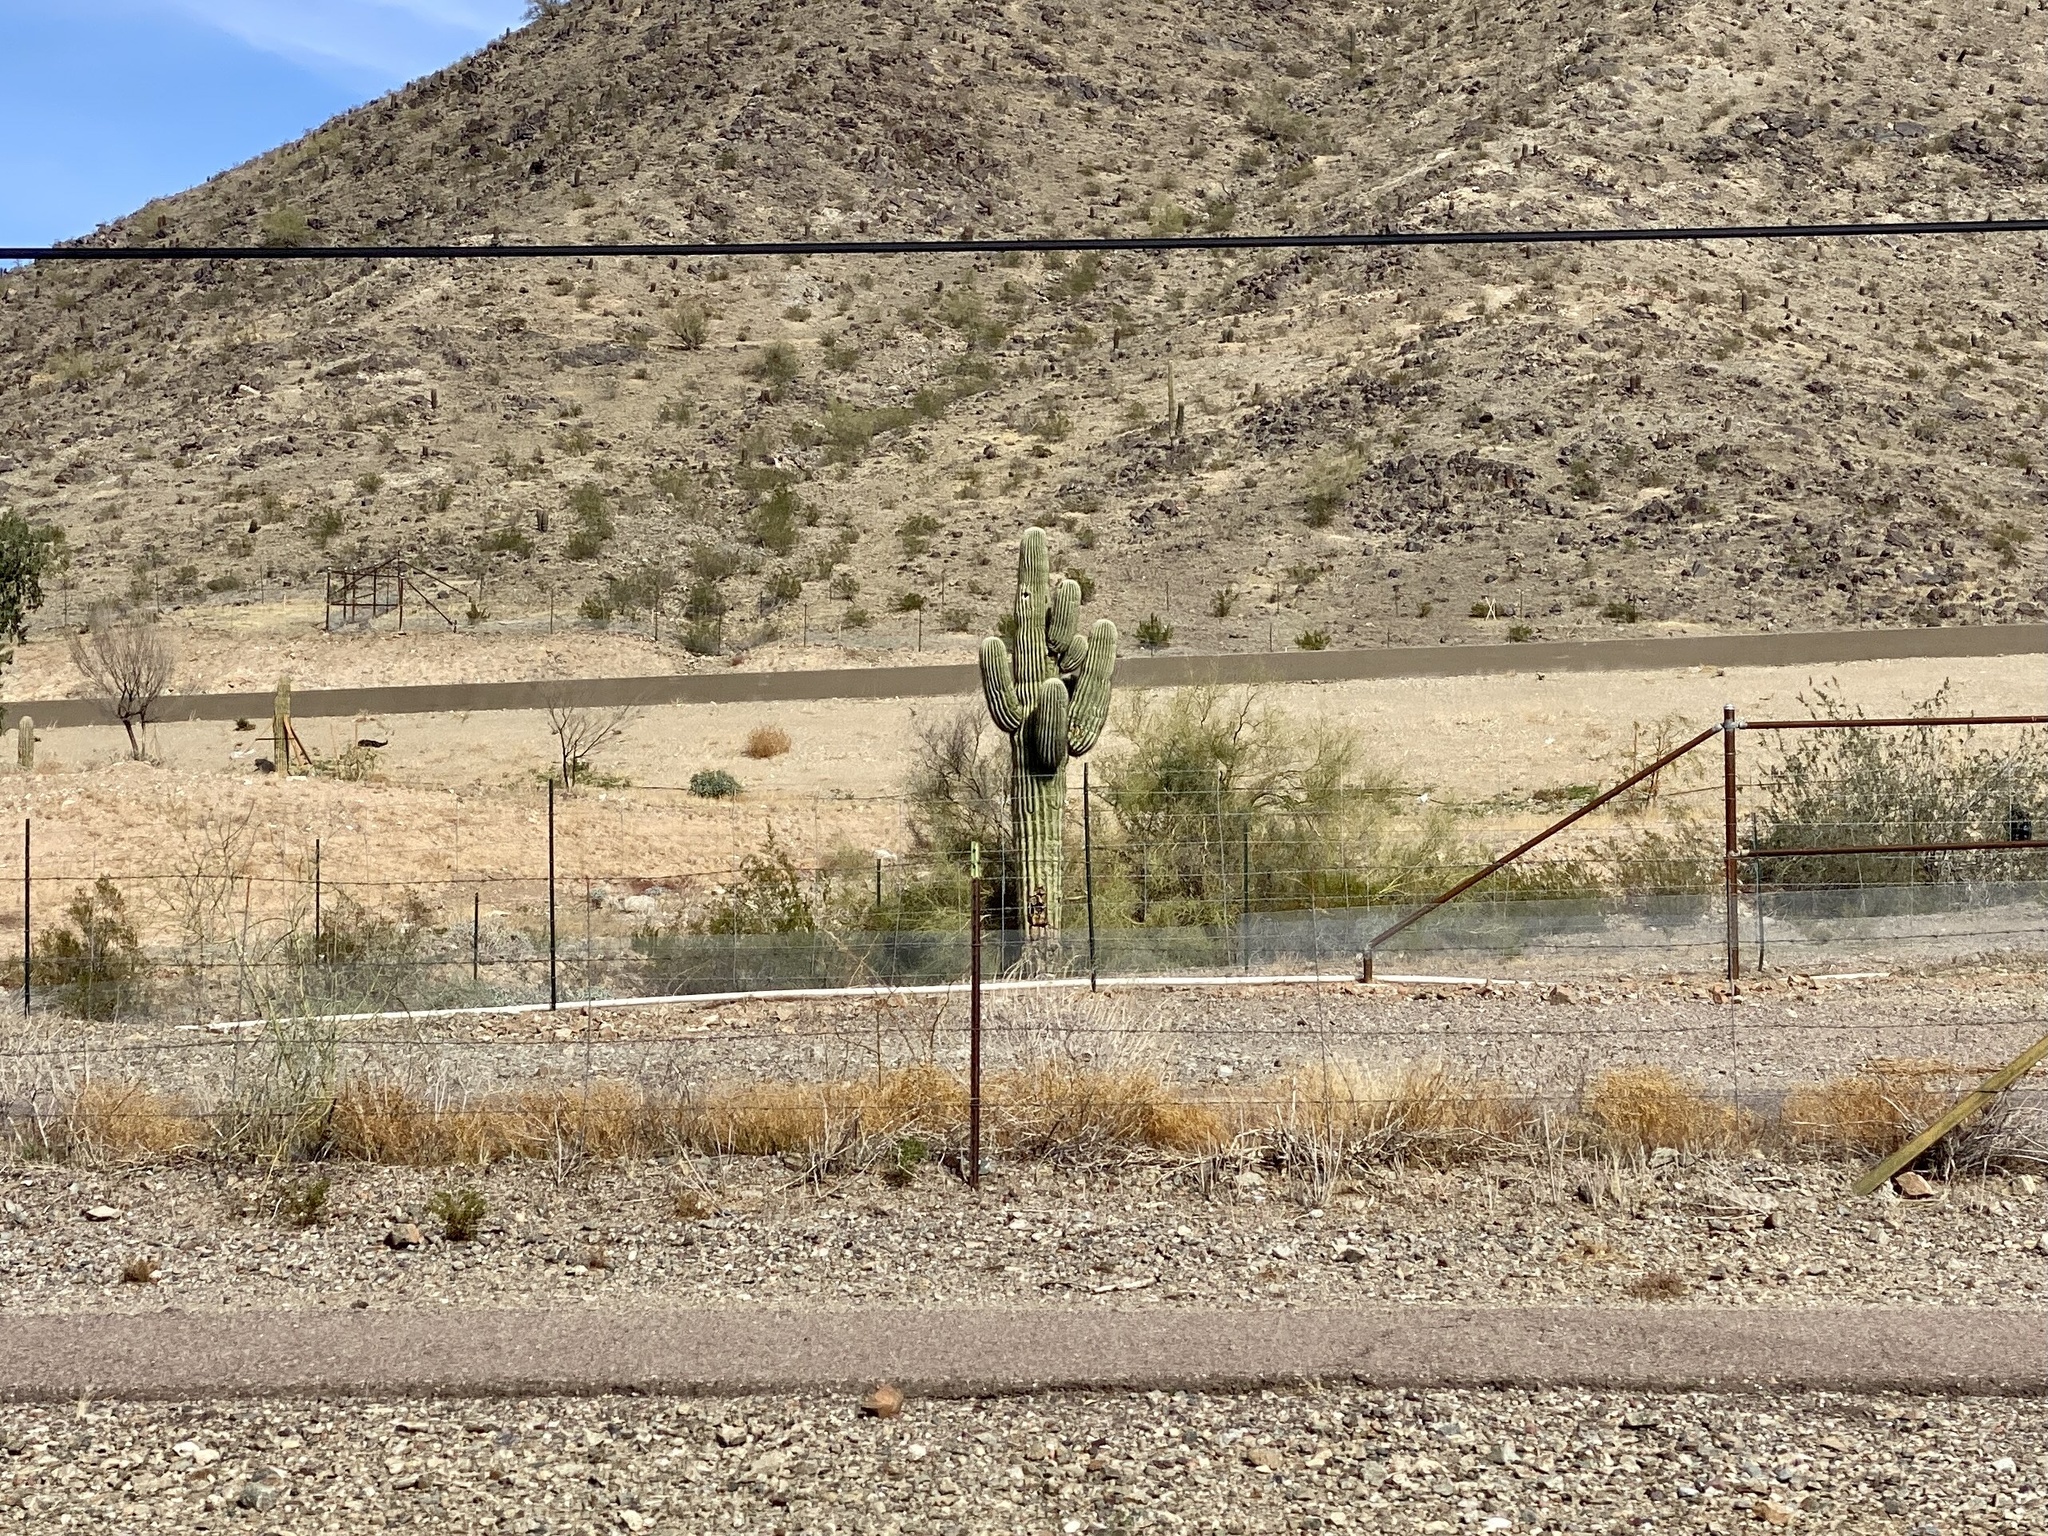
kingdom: Plantae
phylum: Tracheophyta
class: Magnoliopsida
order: Caryophyllales
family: Cactaceae
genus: Carnegiea
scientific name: Carnegiea gigantea
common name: Saguaro
